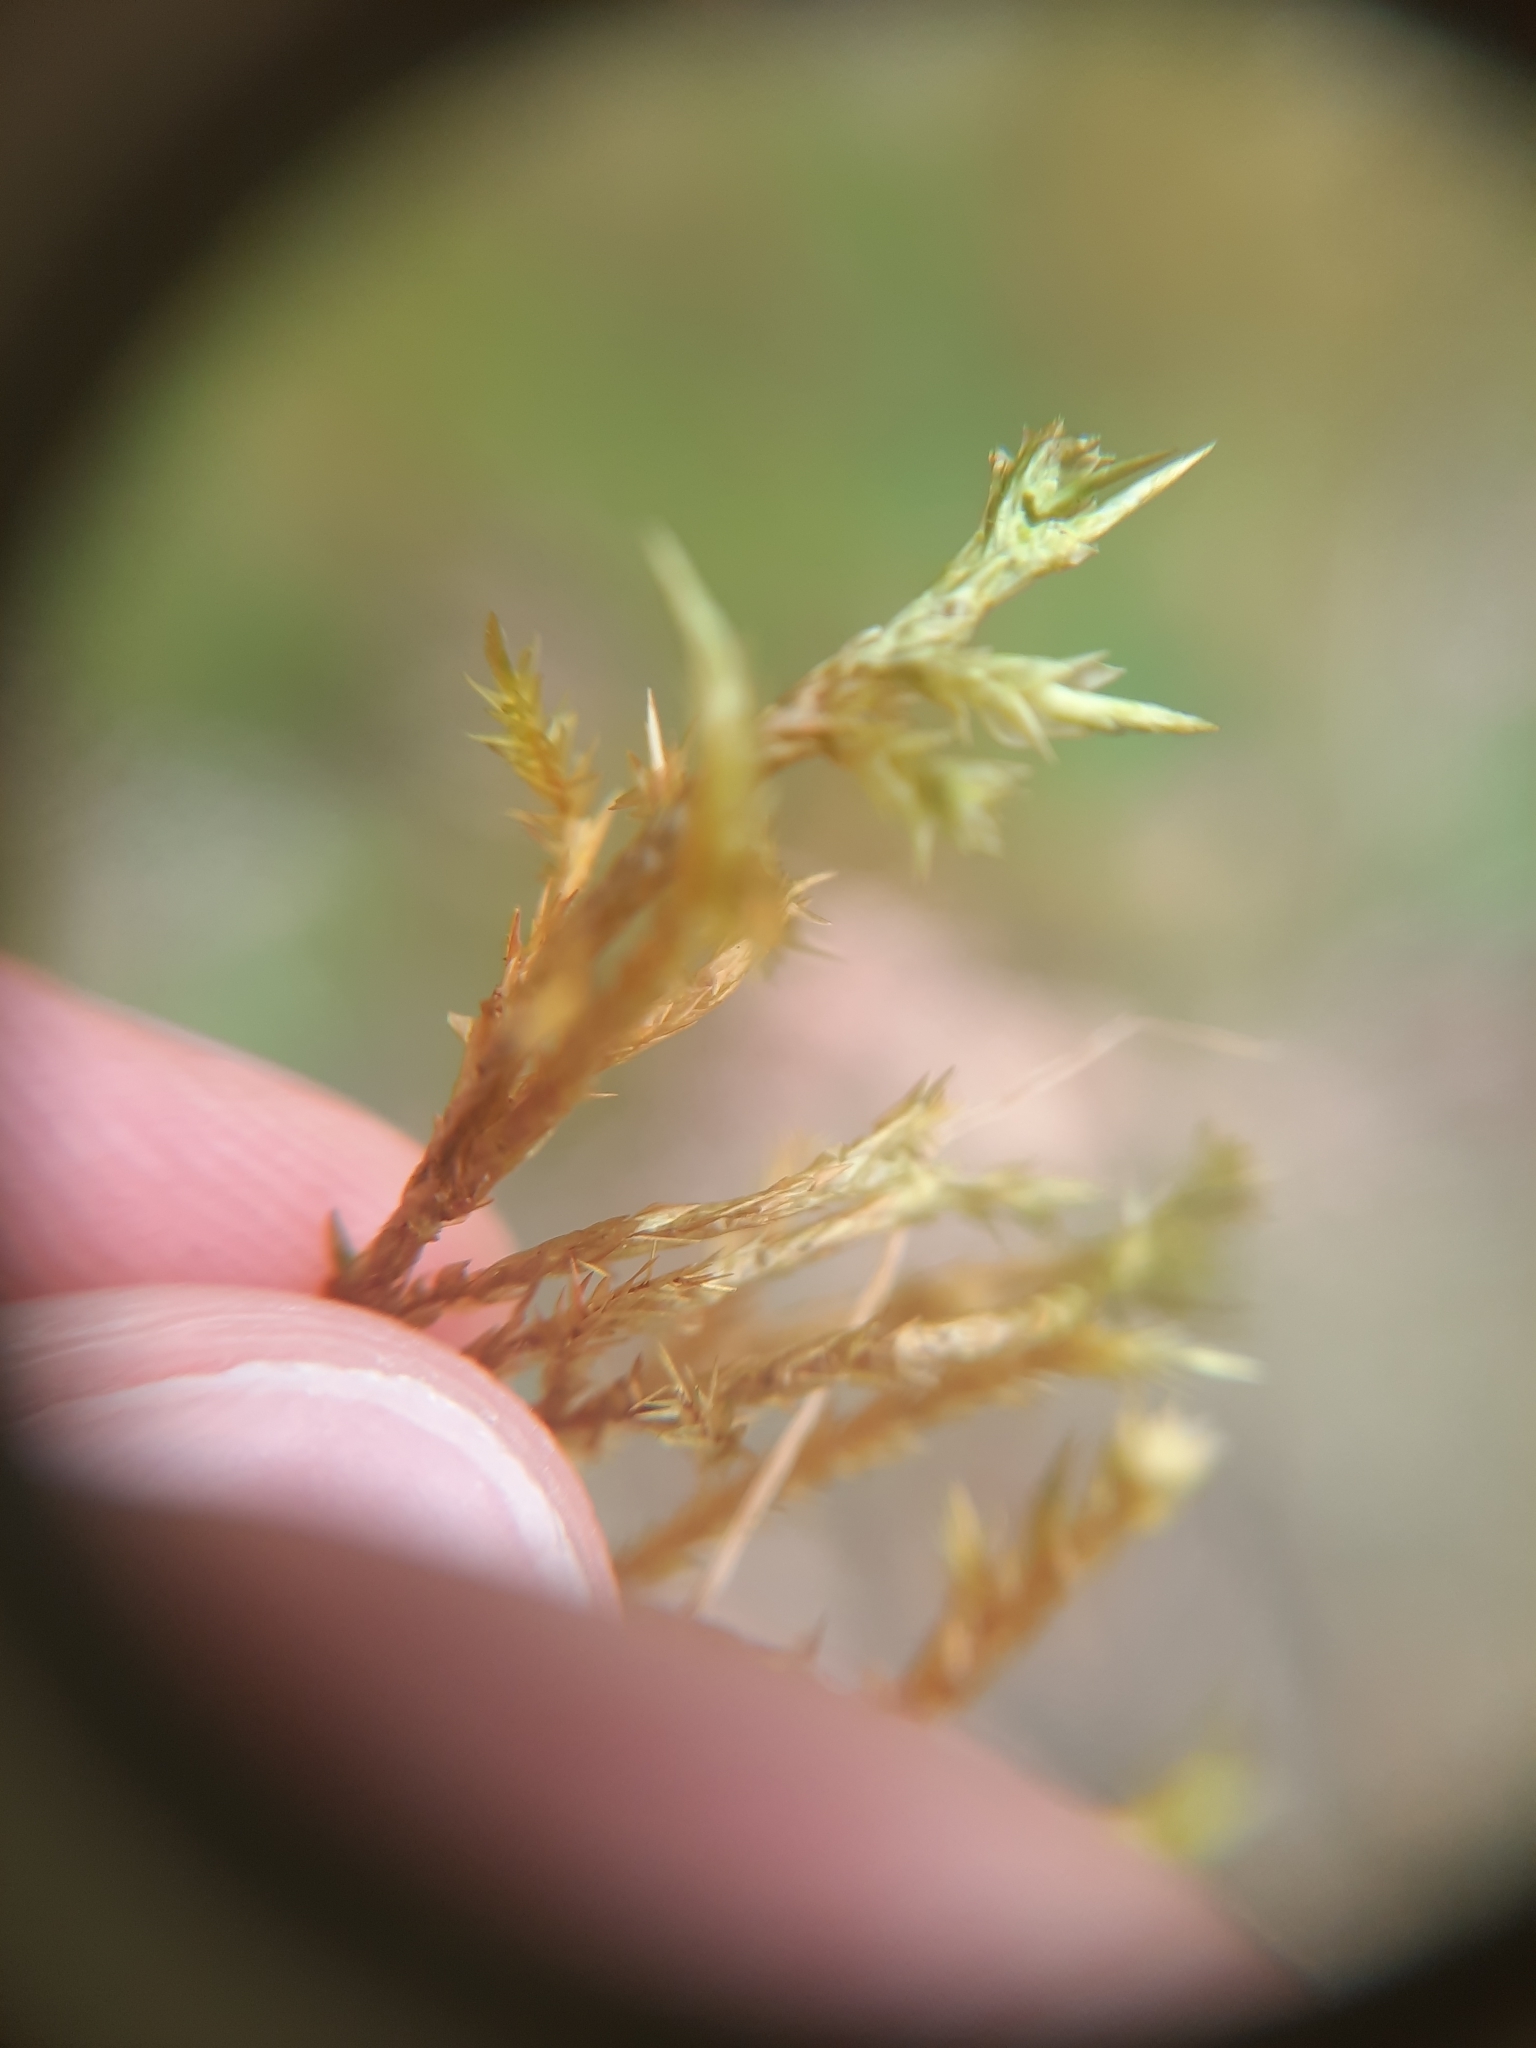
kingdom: Plantae
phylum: Bryophyta
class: Bryopsida
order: Hypnales
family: Pylaisiaceae
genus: Calliergonella
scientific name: Calliergonella cuspidata
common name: Common large wetland moss
